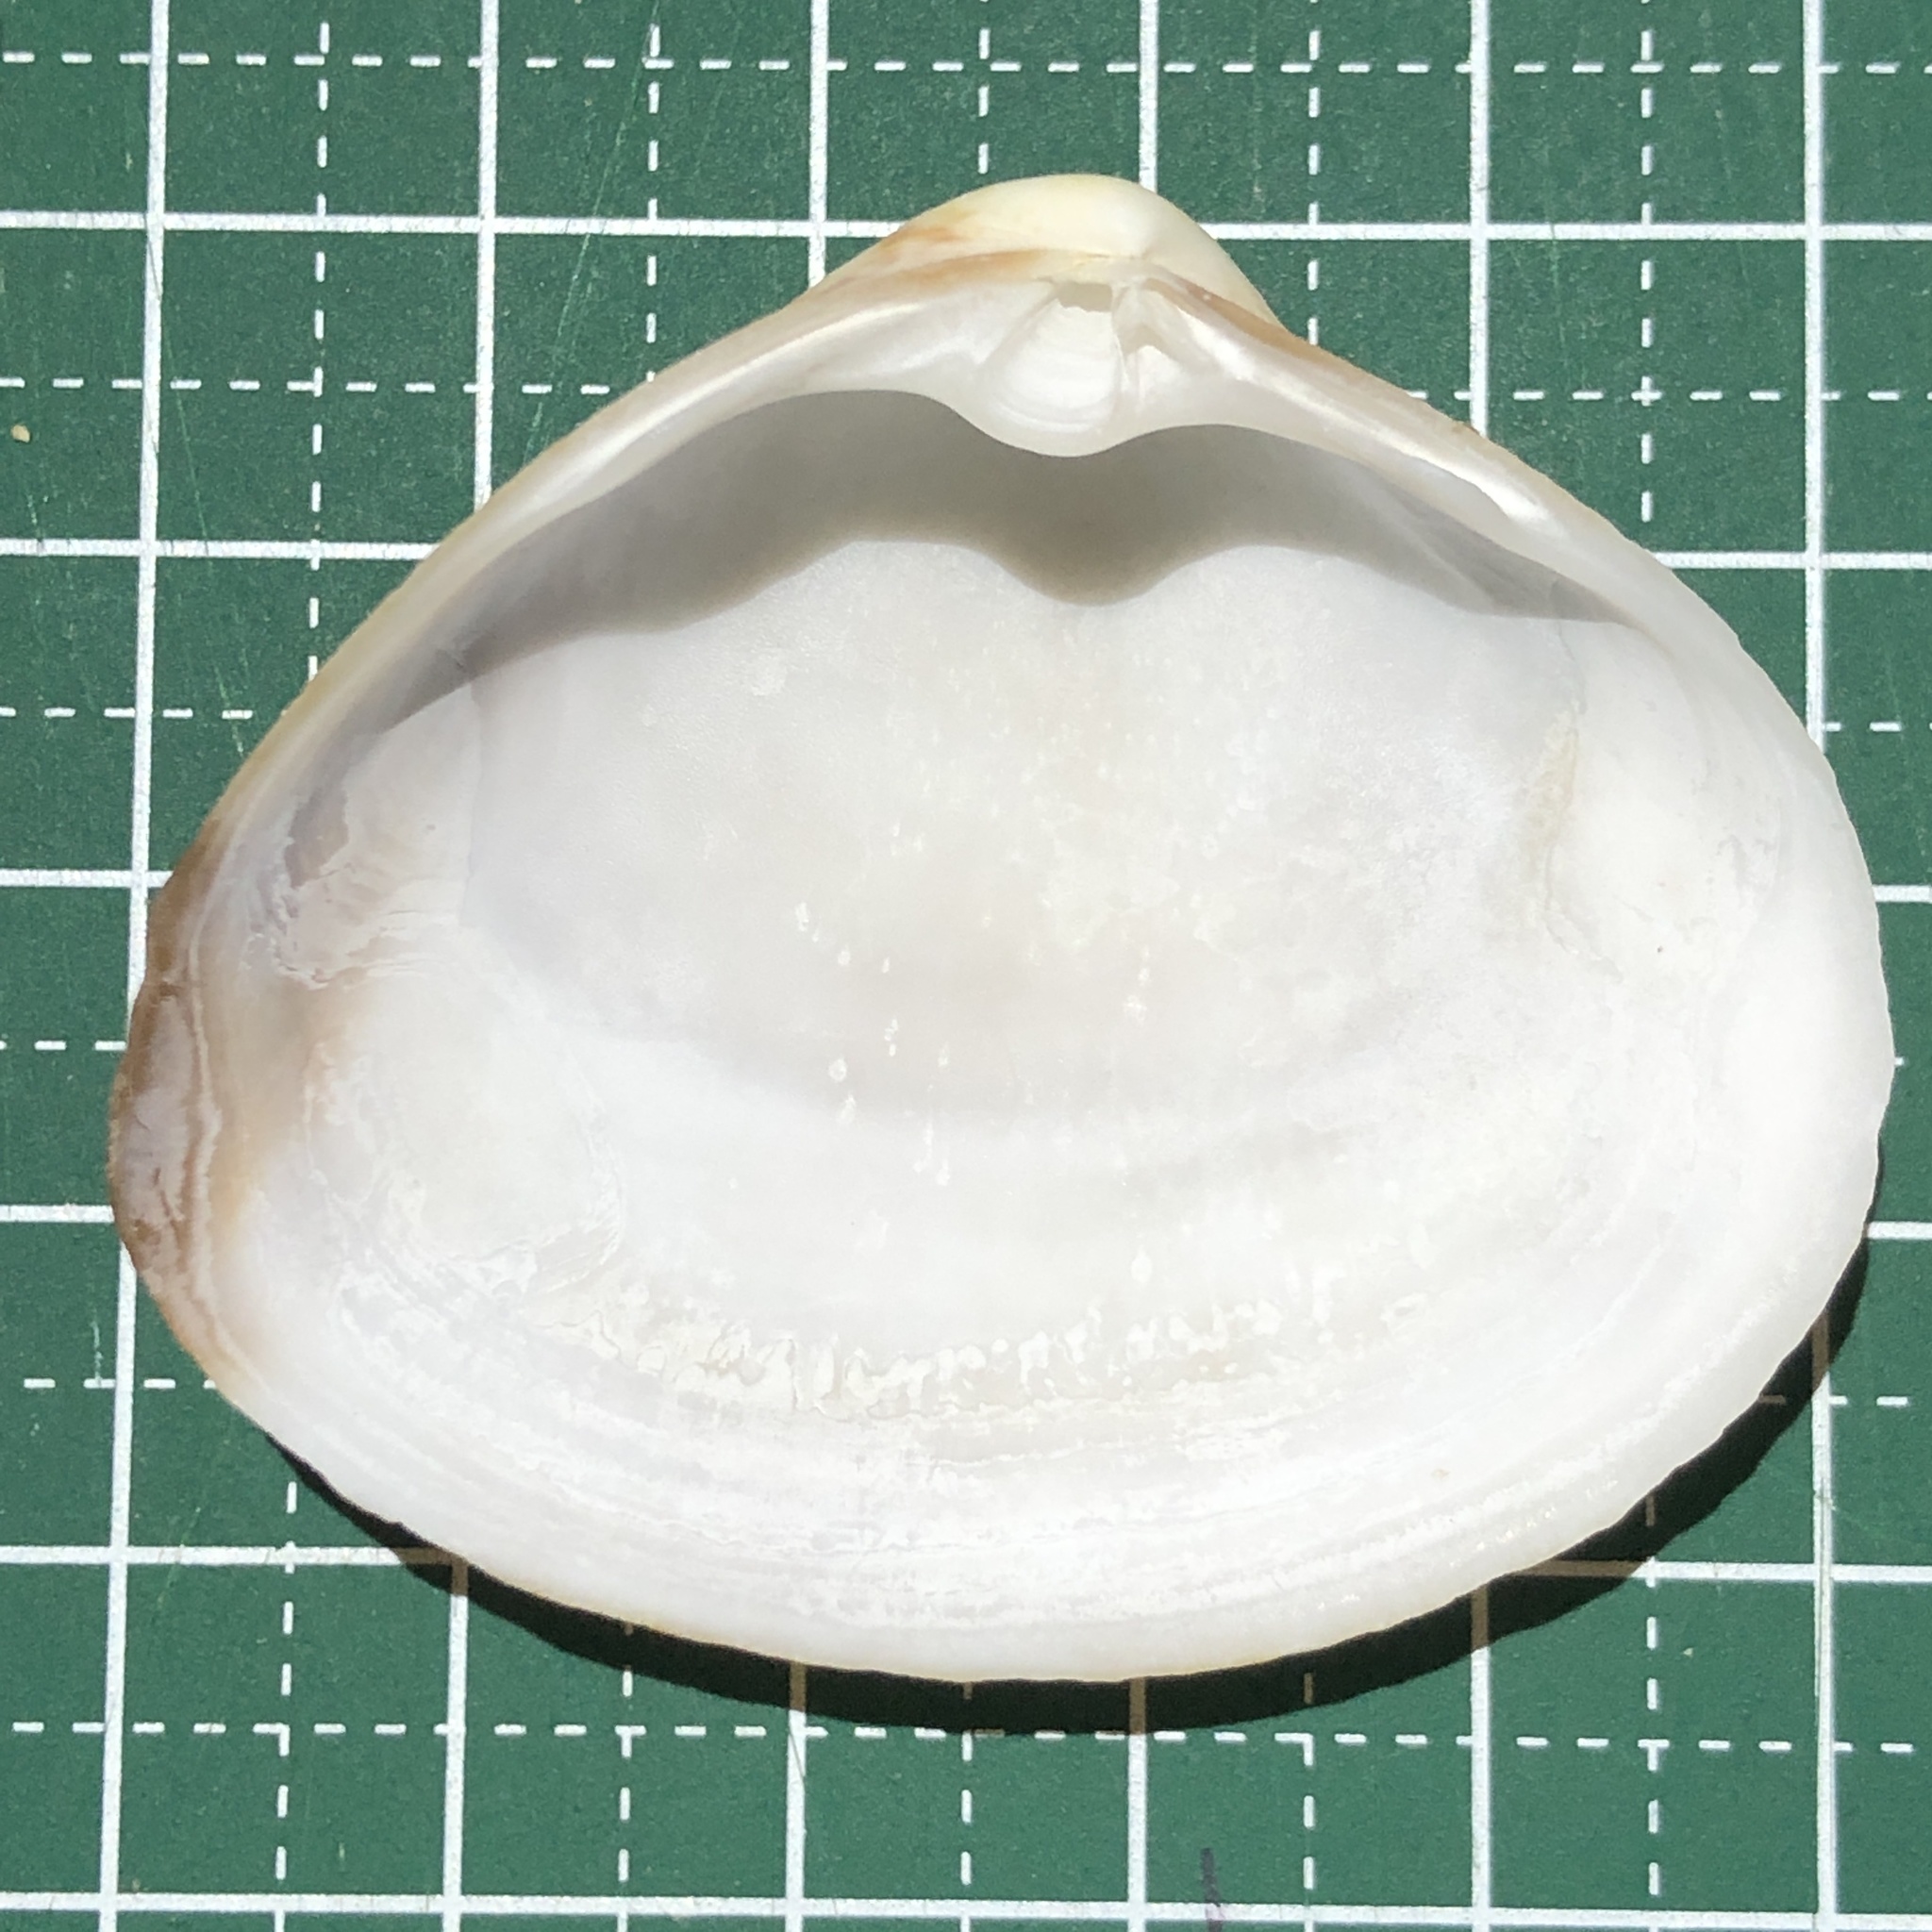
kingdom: Animalia
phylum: Mollusca
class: Bivalvia
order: Venerida
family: Mactridae
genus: Mactra
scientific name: Mactra maculata
